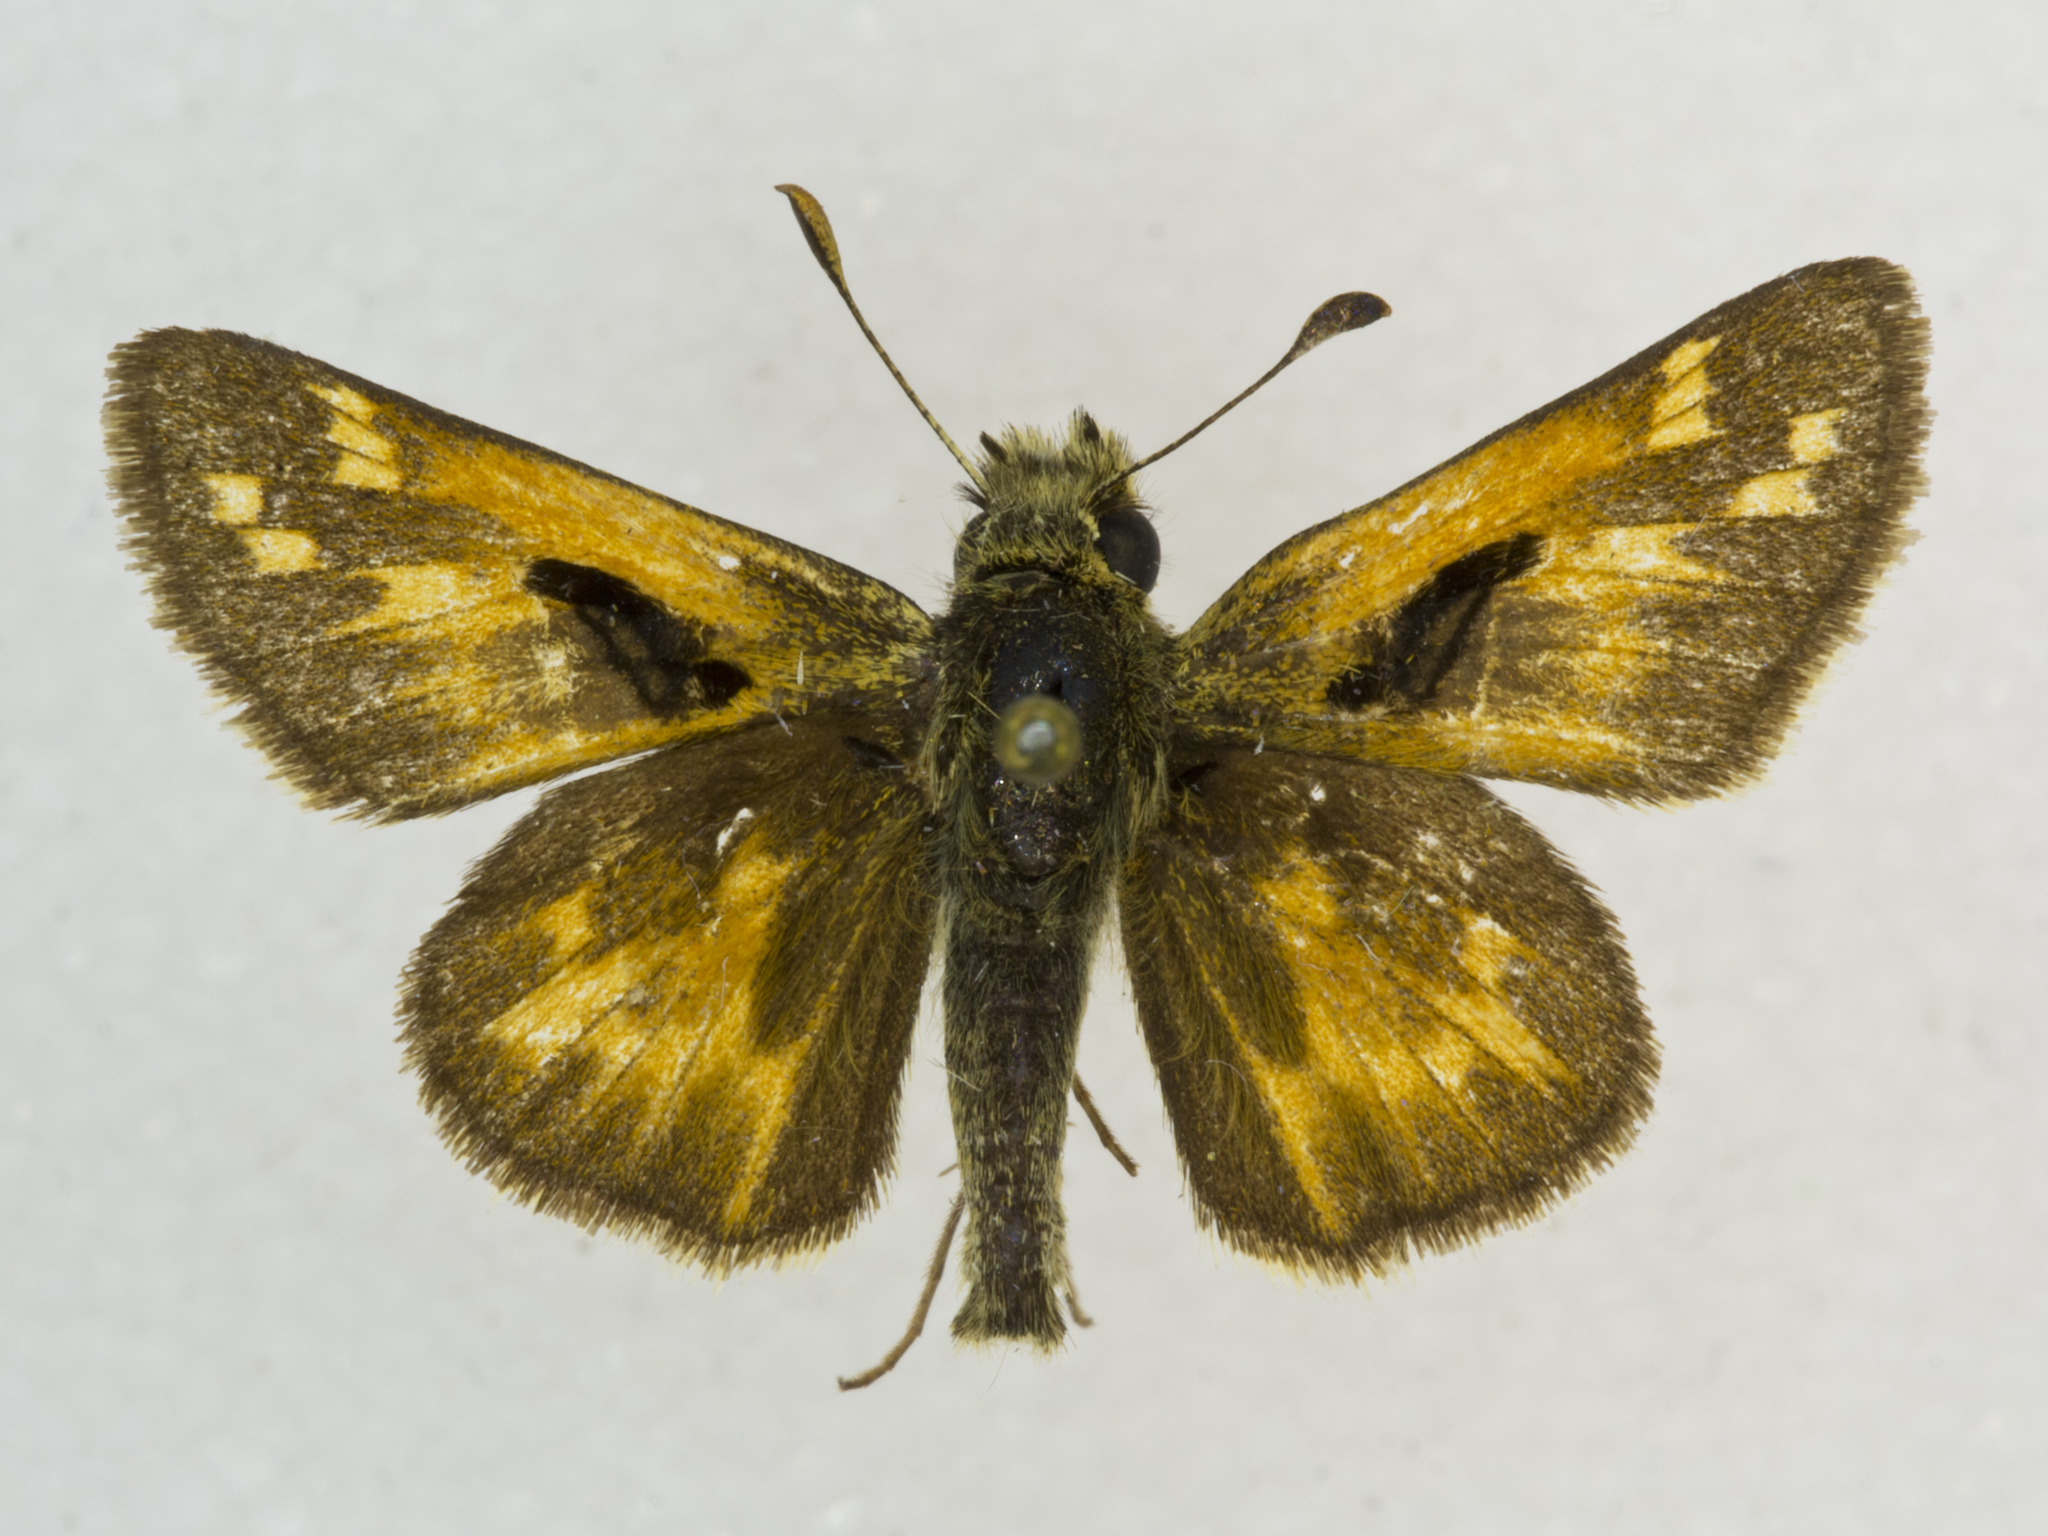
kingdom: Animalia
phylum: Arthropoda
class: Insecta
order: Lepidoptera
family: Hesperiidae
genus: Polites
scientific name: Polites sabuleti
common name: Sandhill skipper
